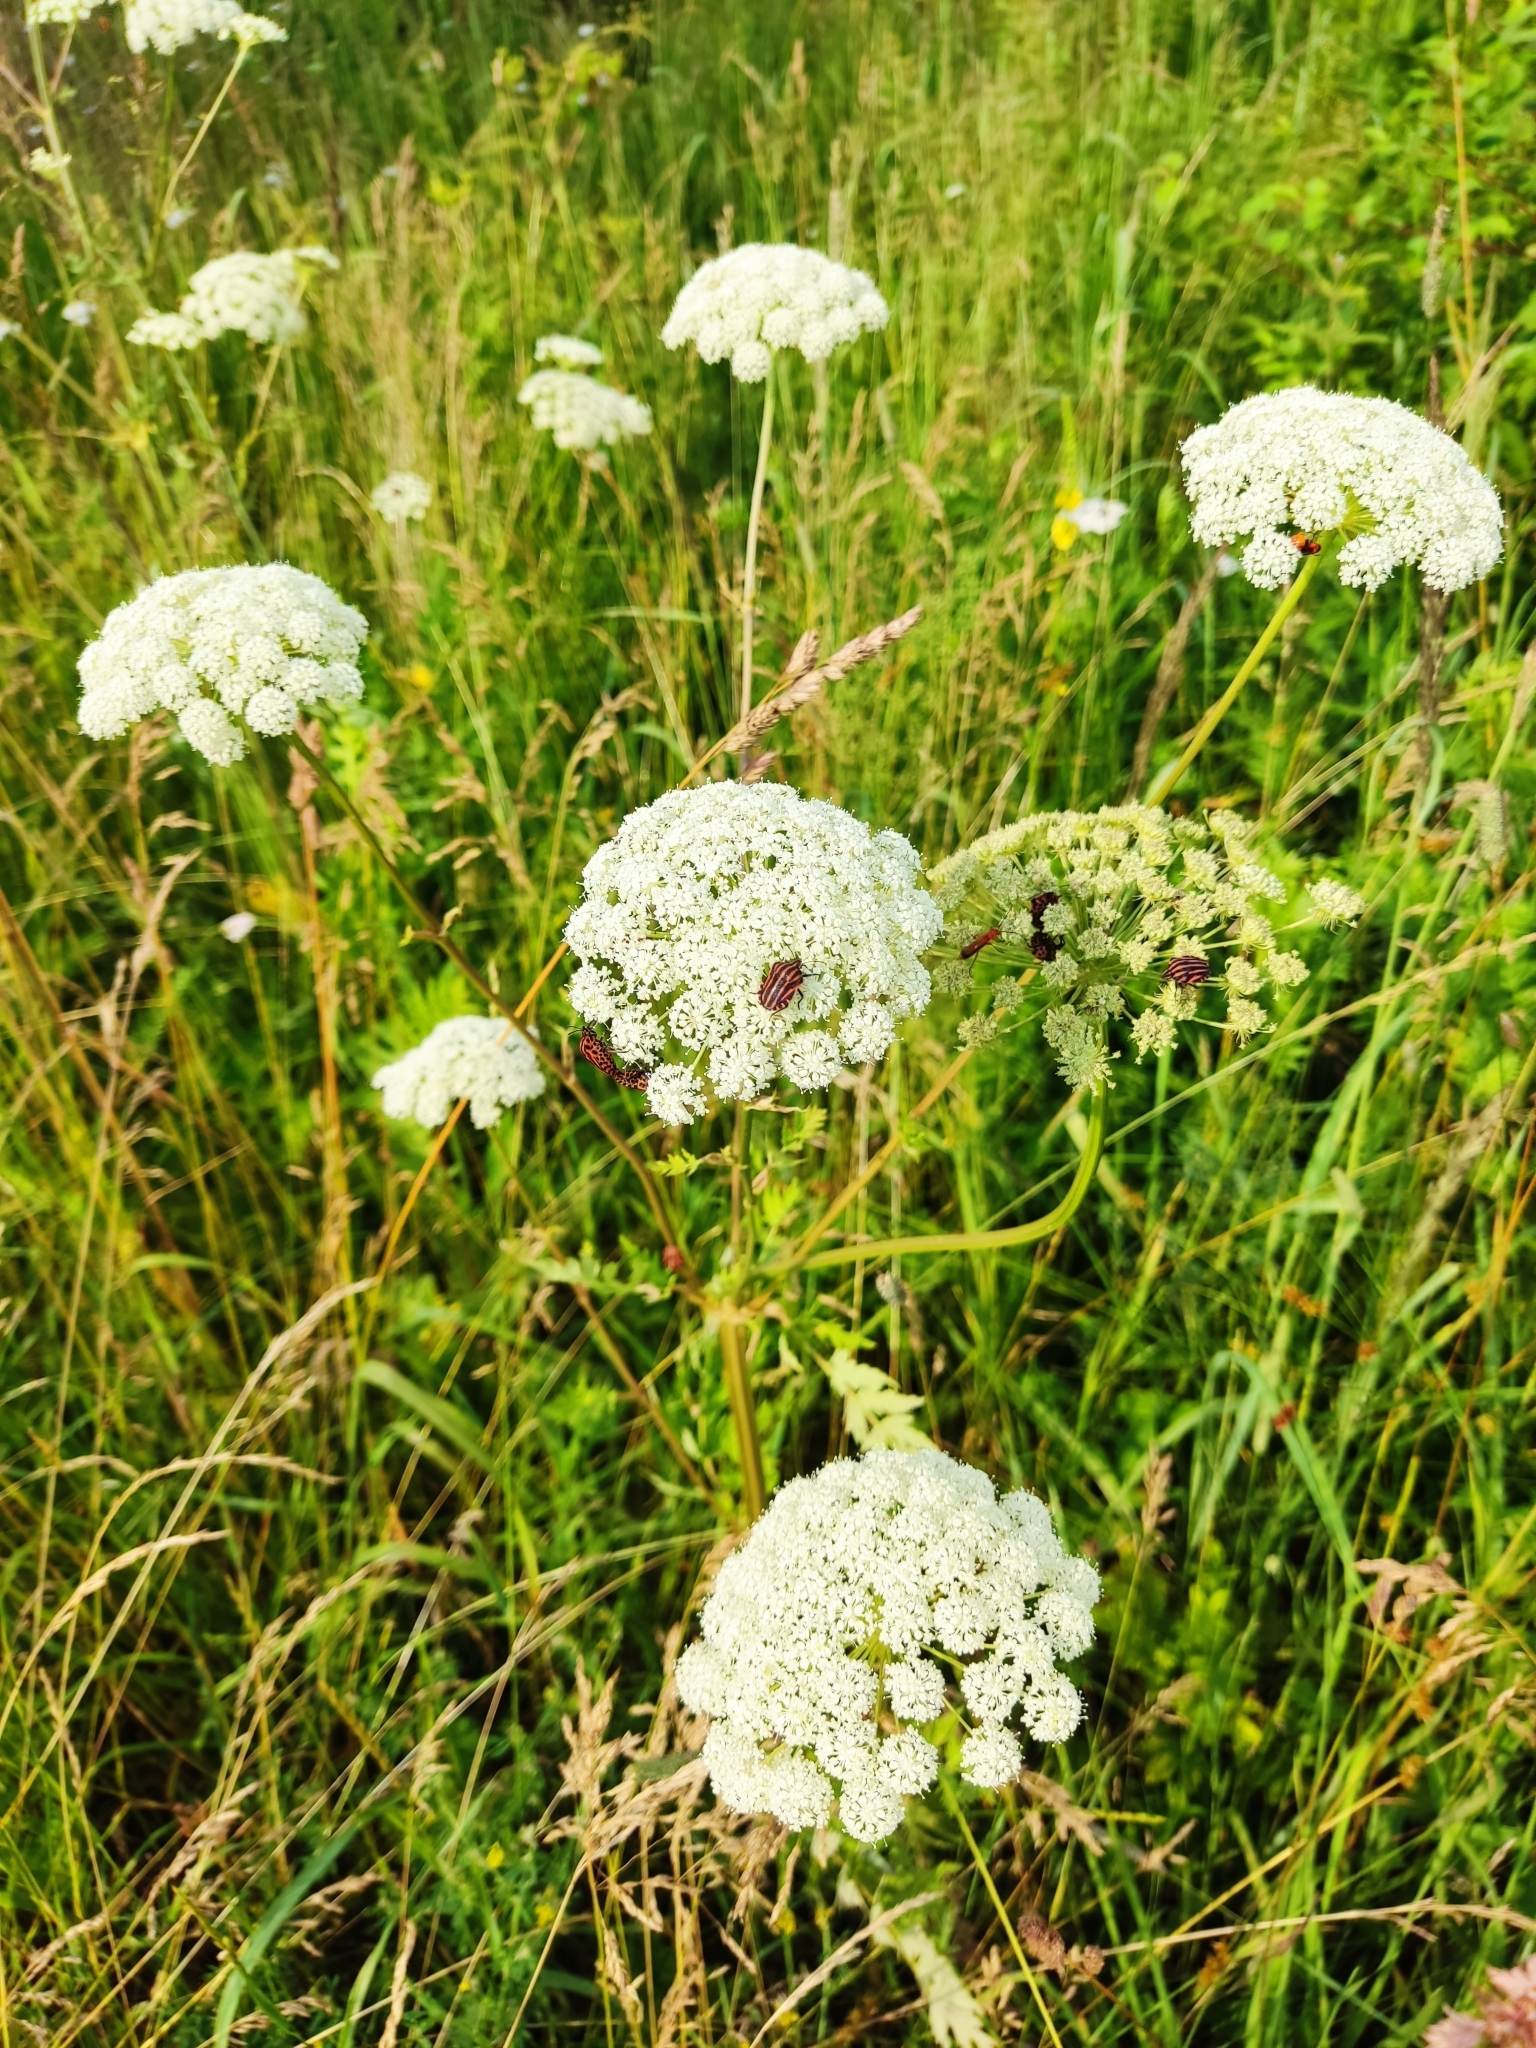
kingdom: Plantae
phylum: Tracheophyta
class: Magnoliopsida
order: Apiales
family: Apiaceae
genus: Seseli
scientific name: Seseli libanotis
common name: Mooncarrot
